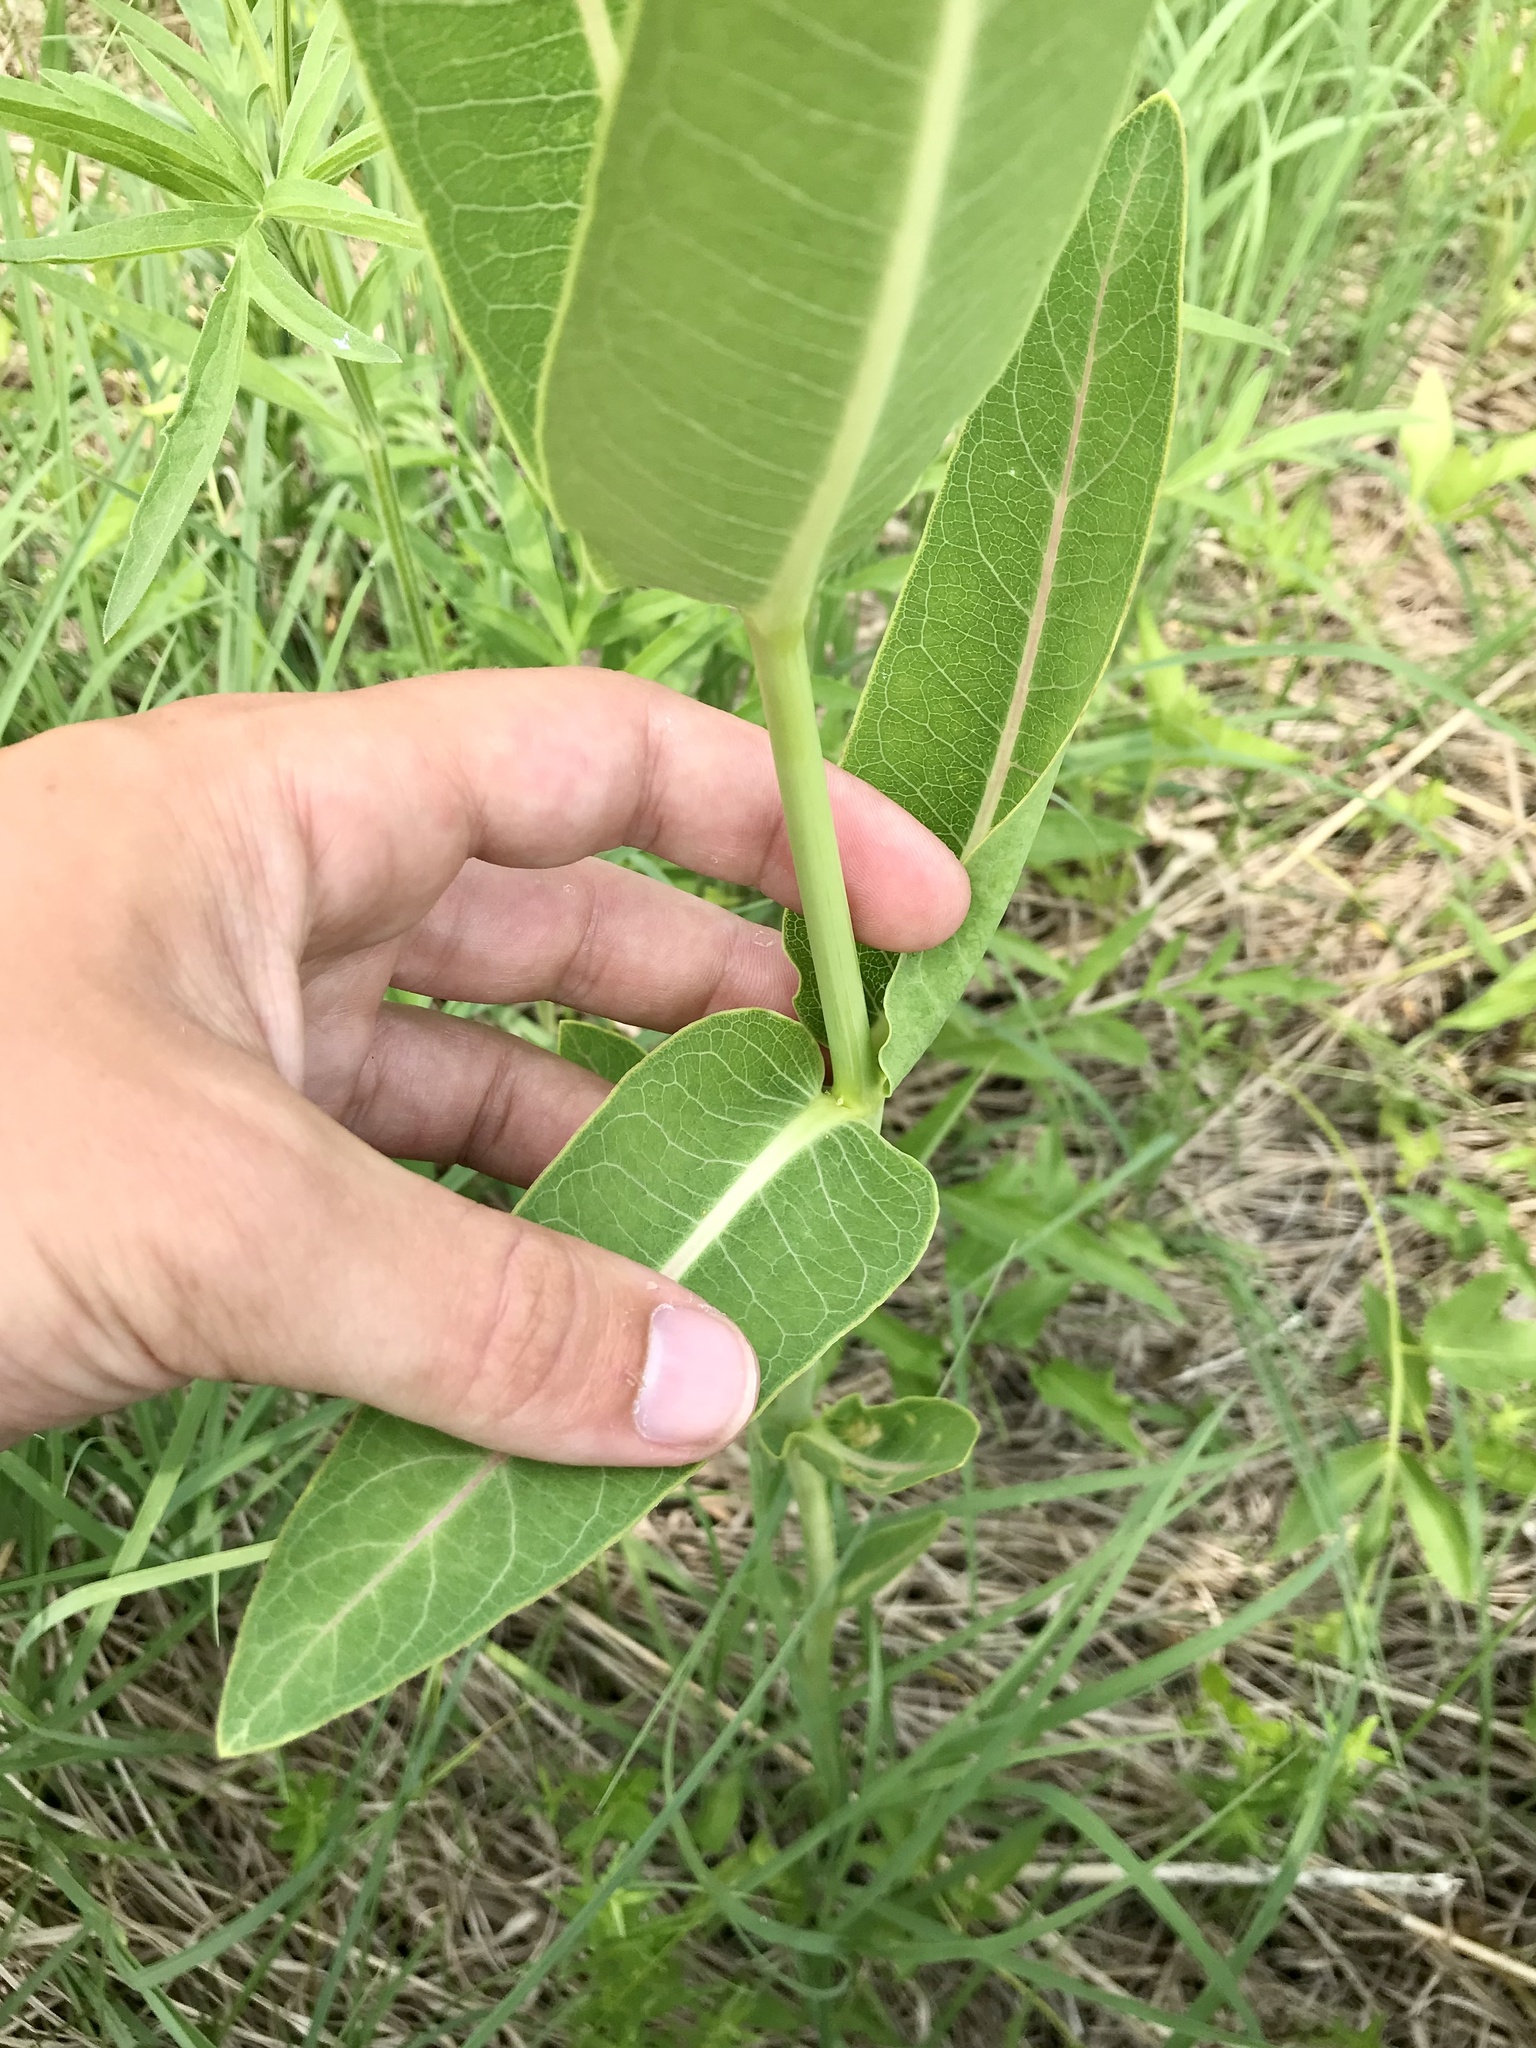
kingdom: Plantae
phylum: Tracheophyta
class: Magnoliopsida
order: Gentianales
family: Apocynaceae
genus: Asclepias
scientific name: Asclepias sullivantii
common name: Prairie milkweed
